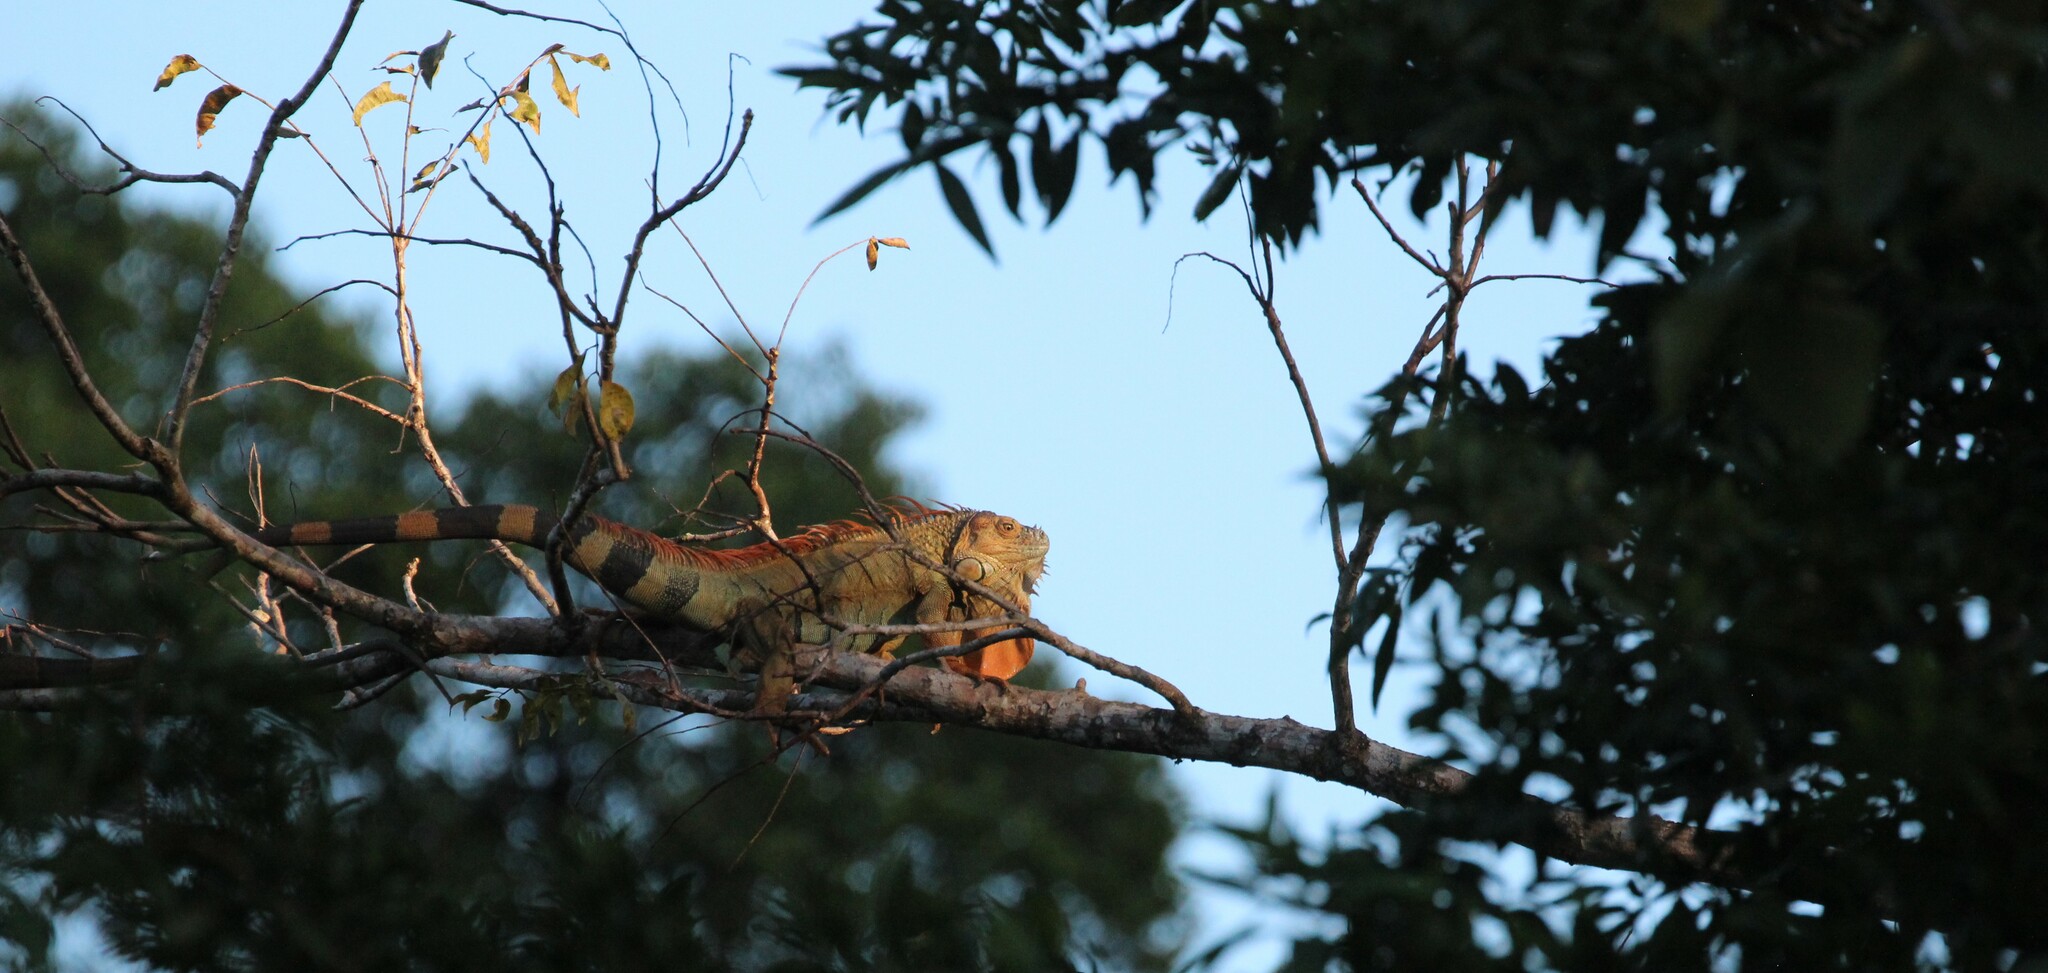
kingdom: Animalia
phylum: Chordata
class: Squamata
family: Iguanidae
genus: Iguana
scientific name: Iguana iguana
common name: Green iguana
